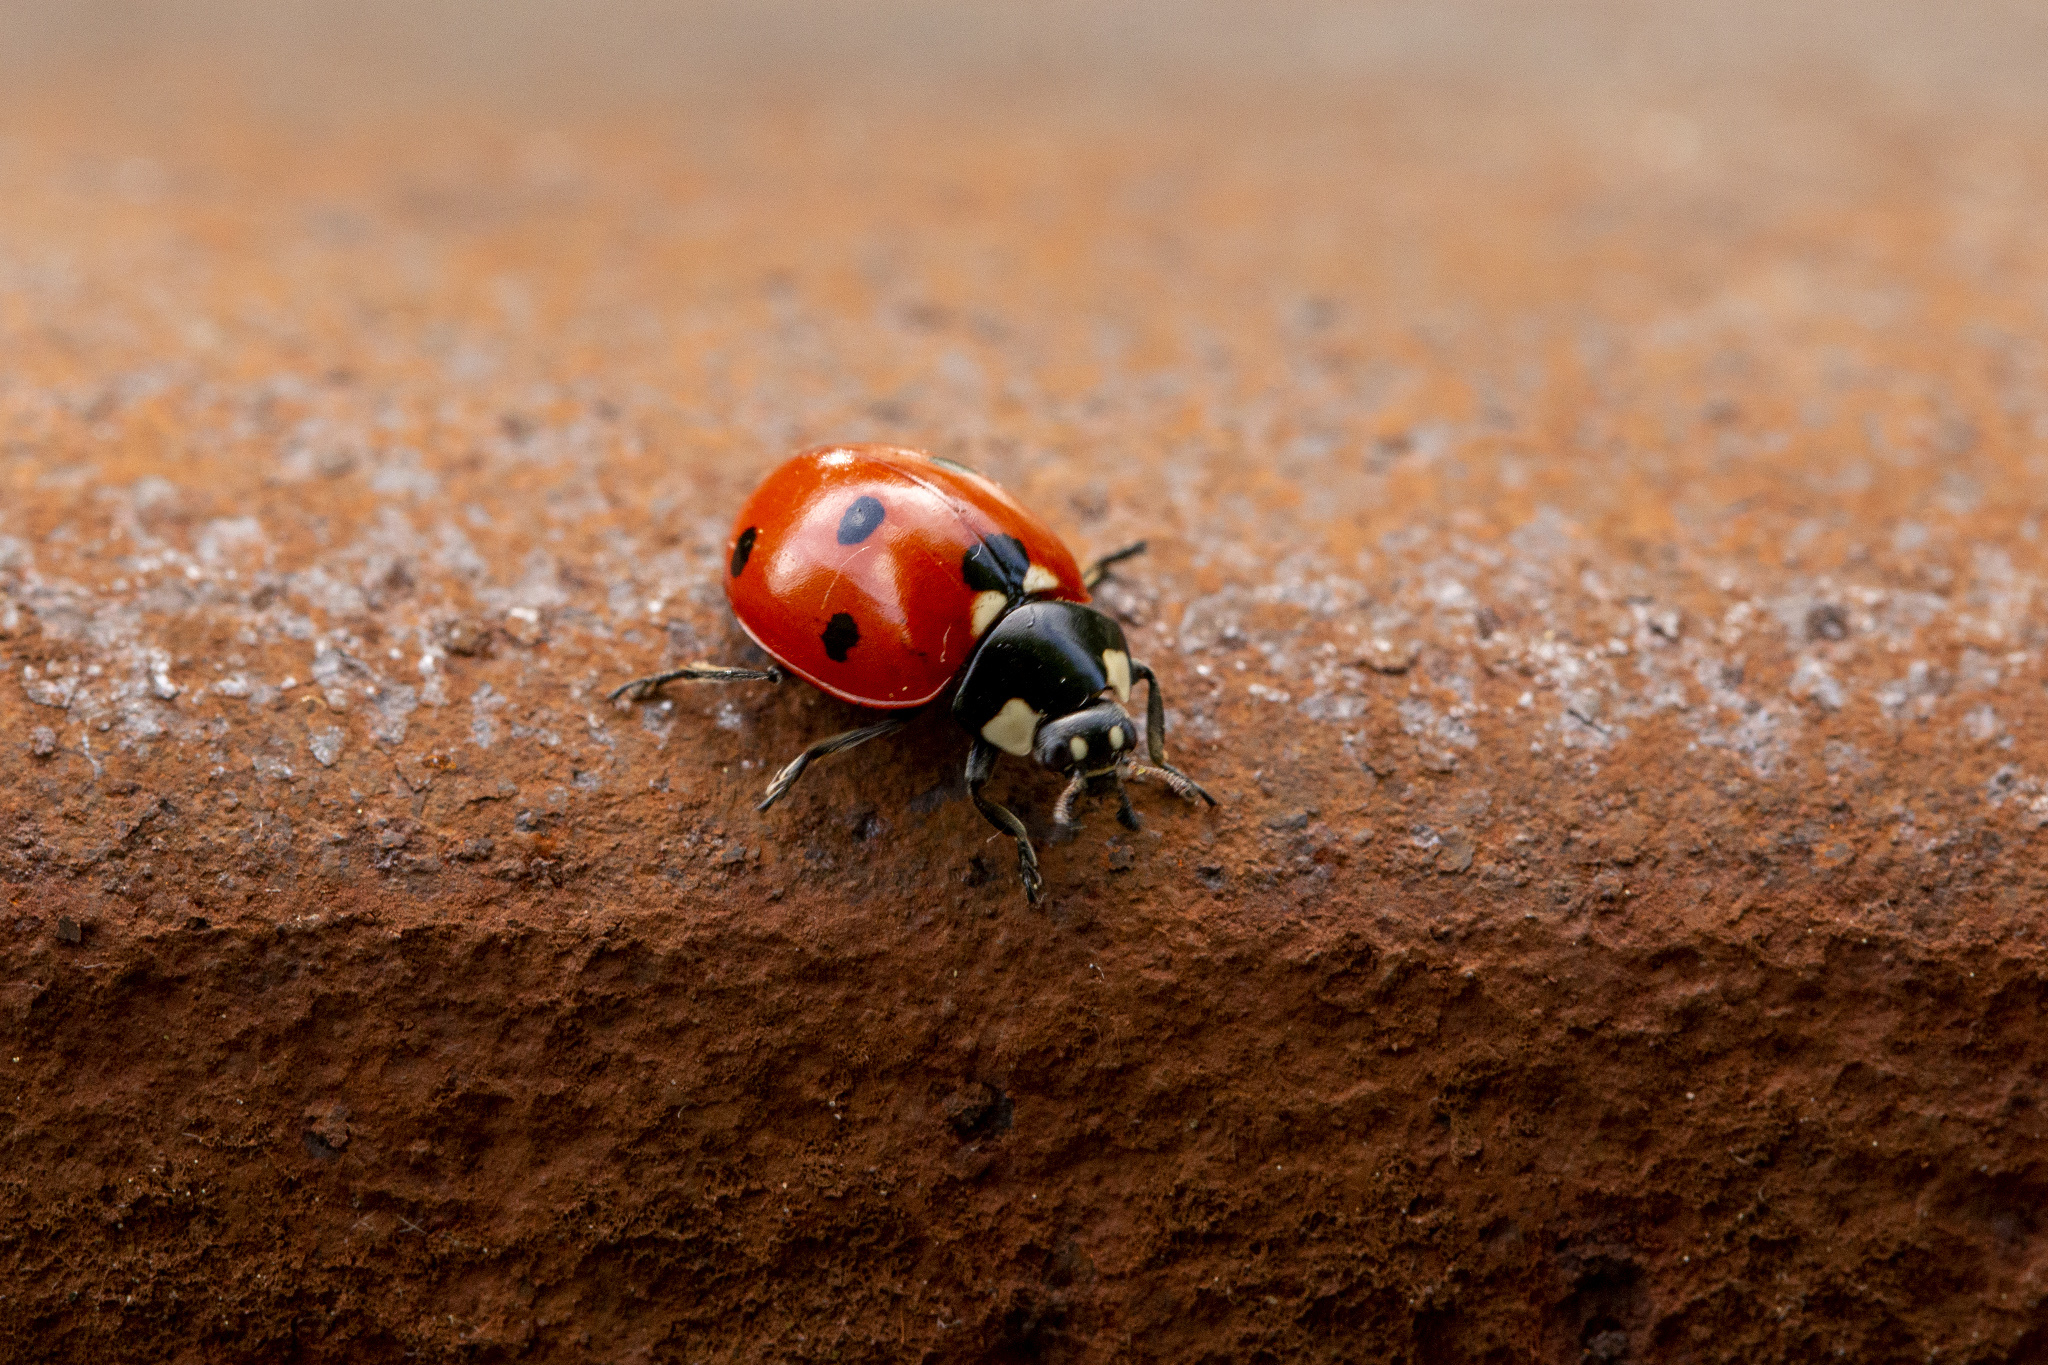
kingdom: Animalia
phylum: Arthropoda
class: Insecta
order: Coleoptera
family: Coccinellidae
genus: Coccinella
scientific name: Coccinella septempunctata
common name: Sevenspotted lady beetle
